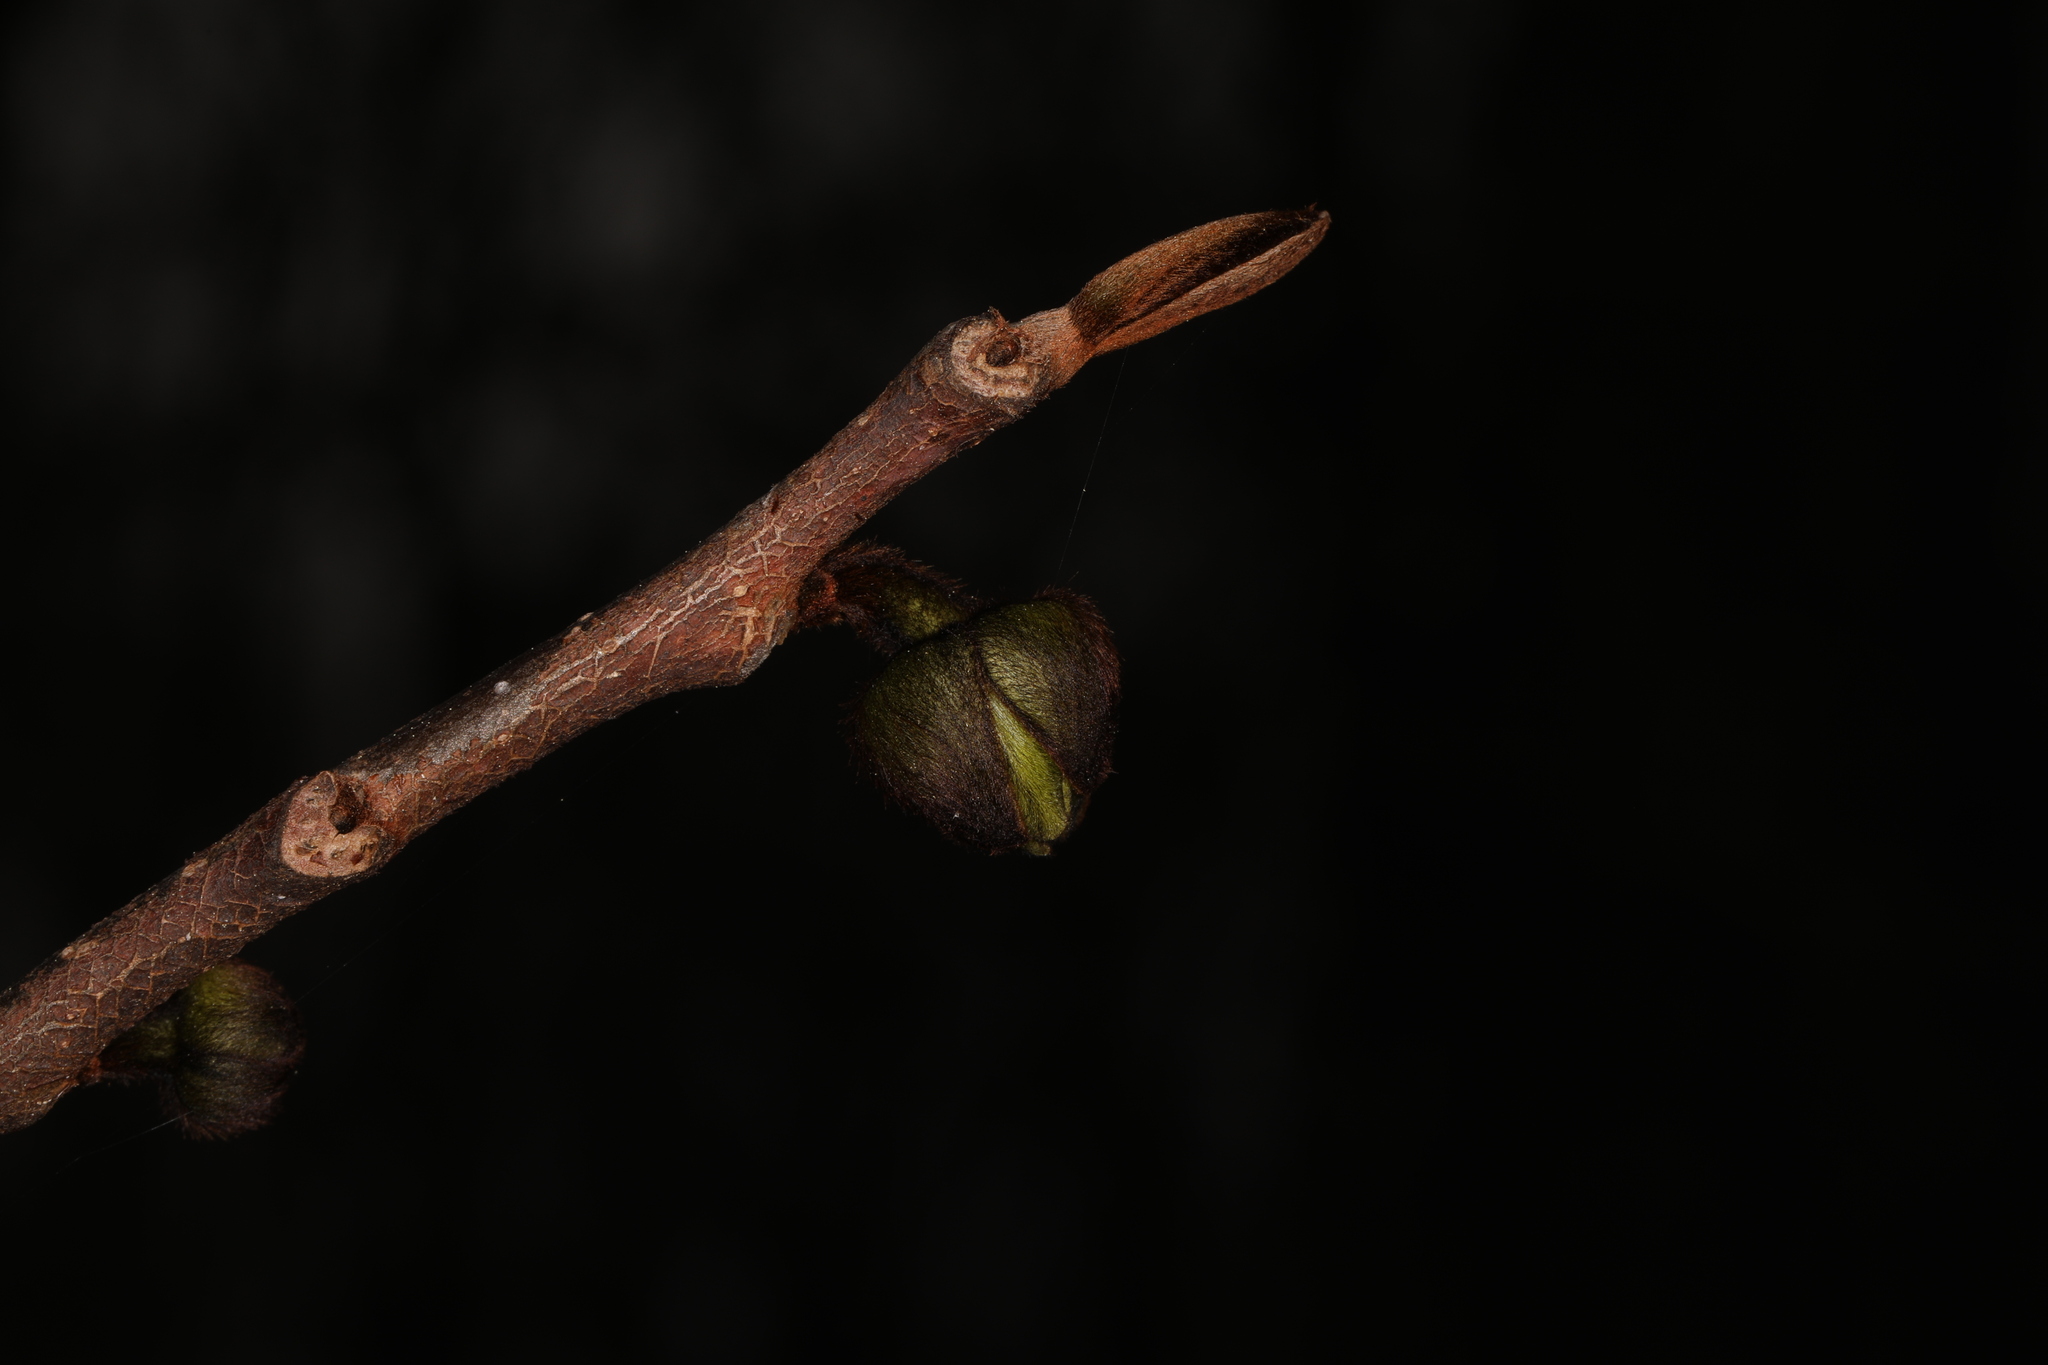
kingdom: Plantae
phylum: Tracheophyta
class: Magnoliopsida
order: Magnoliales
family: Annonaceae
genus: Asimina
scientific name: Asimina triloba
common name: Dog-banana
